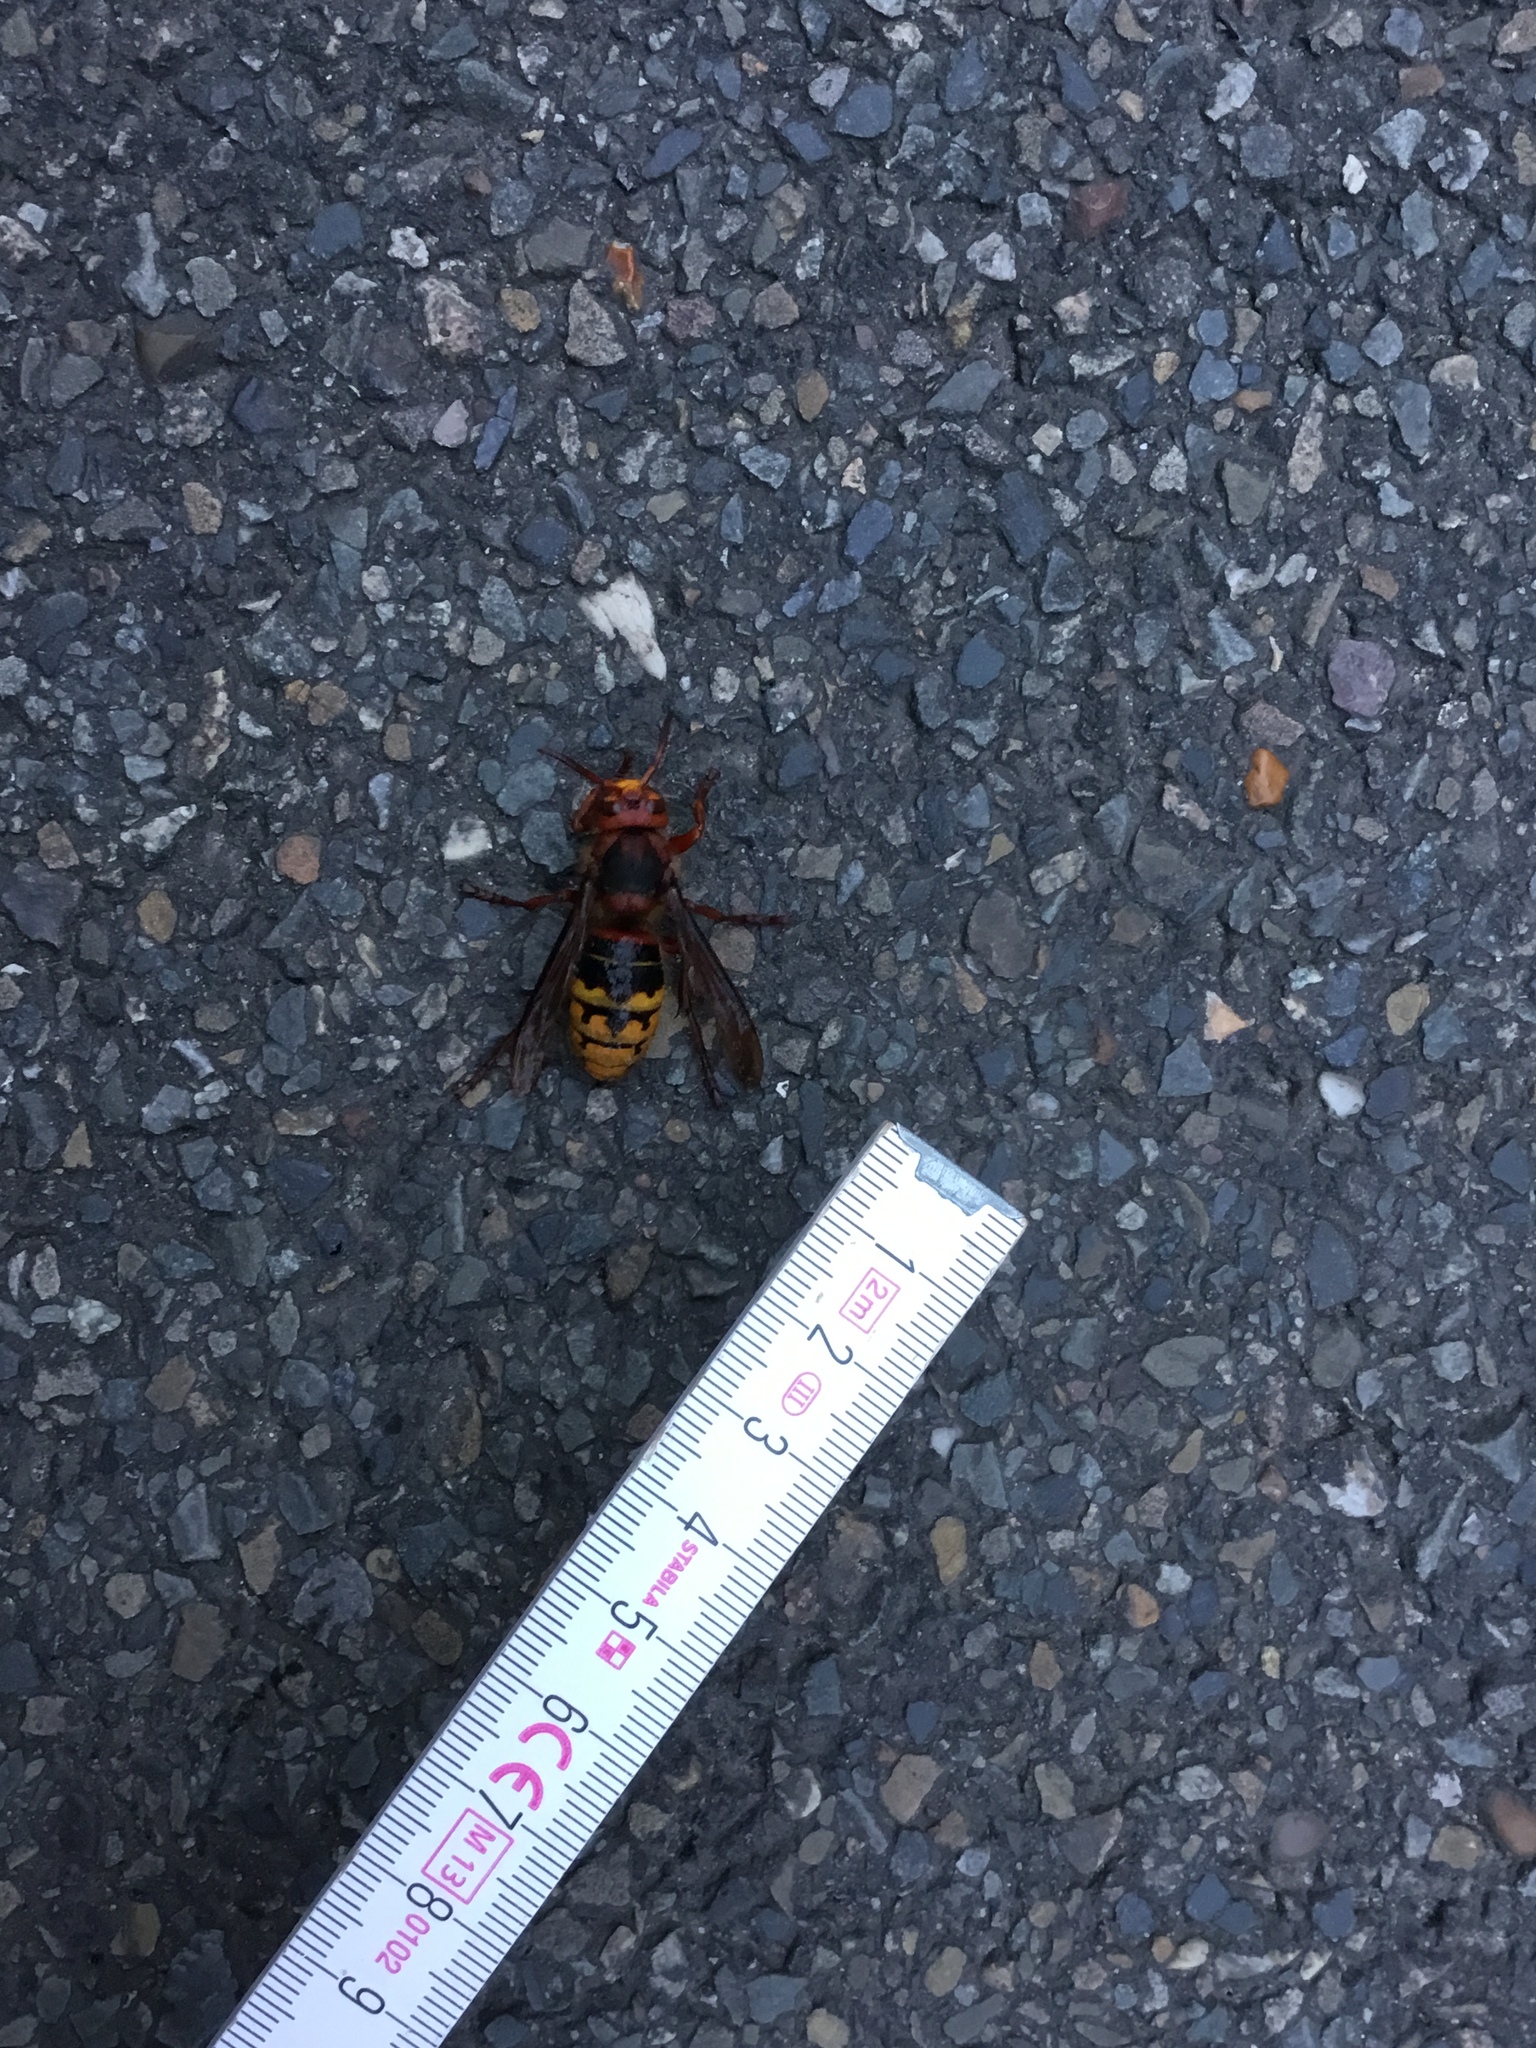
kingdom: Animalia
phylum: Arthropoda
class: Insecta
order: Hymenoptera
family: Vespidae
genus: Vespa
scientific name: Vespa crabro
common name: Hornet
